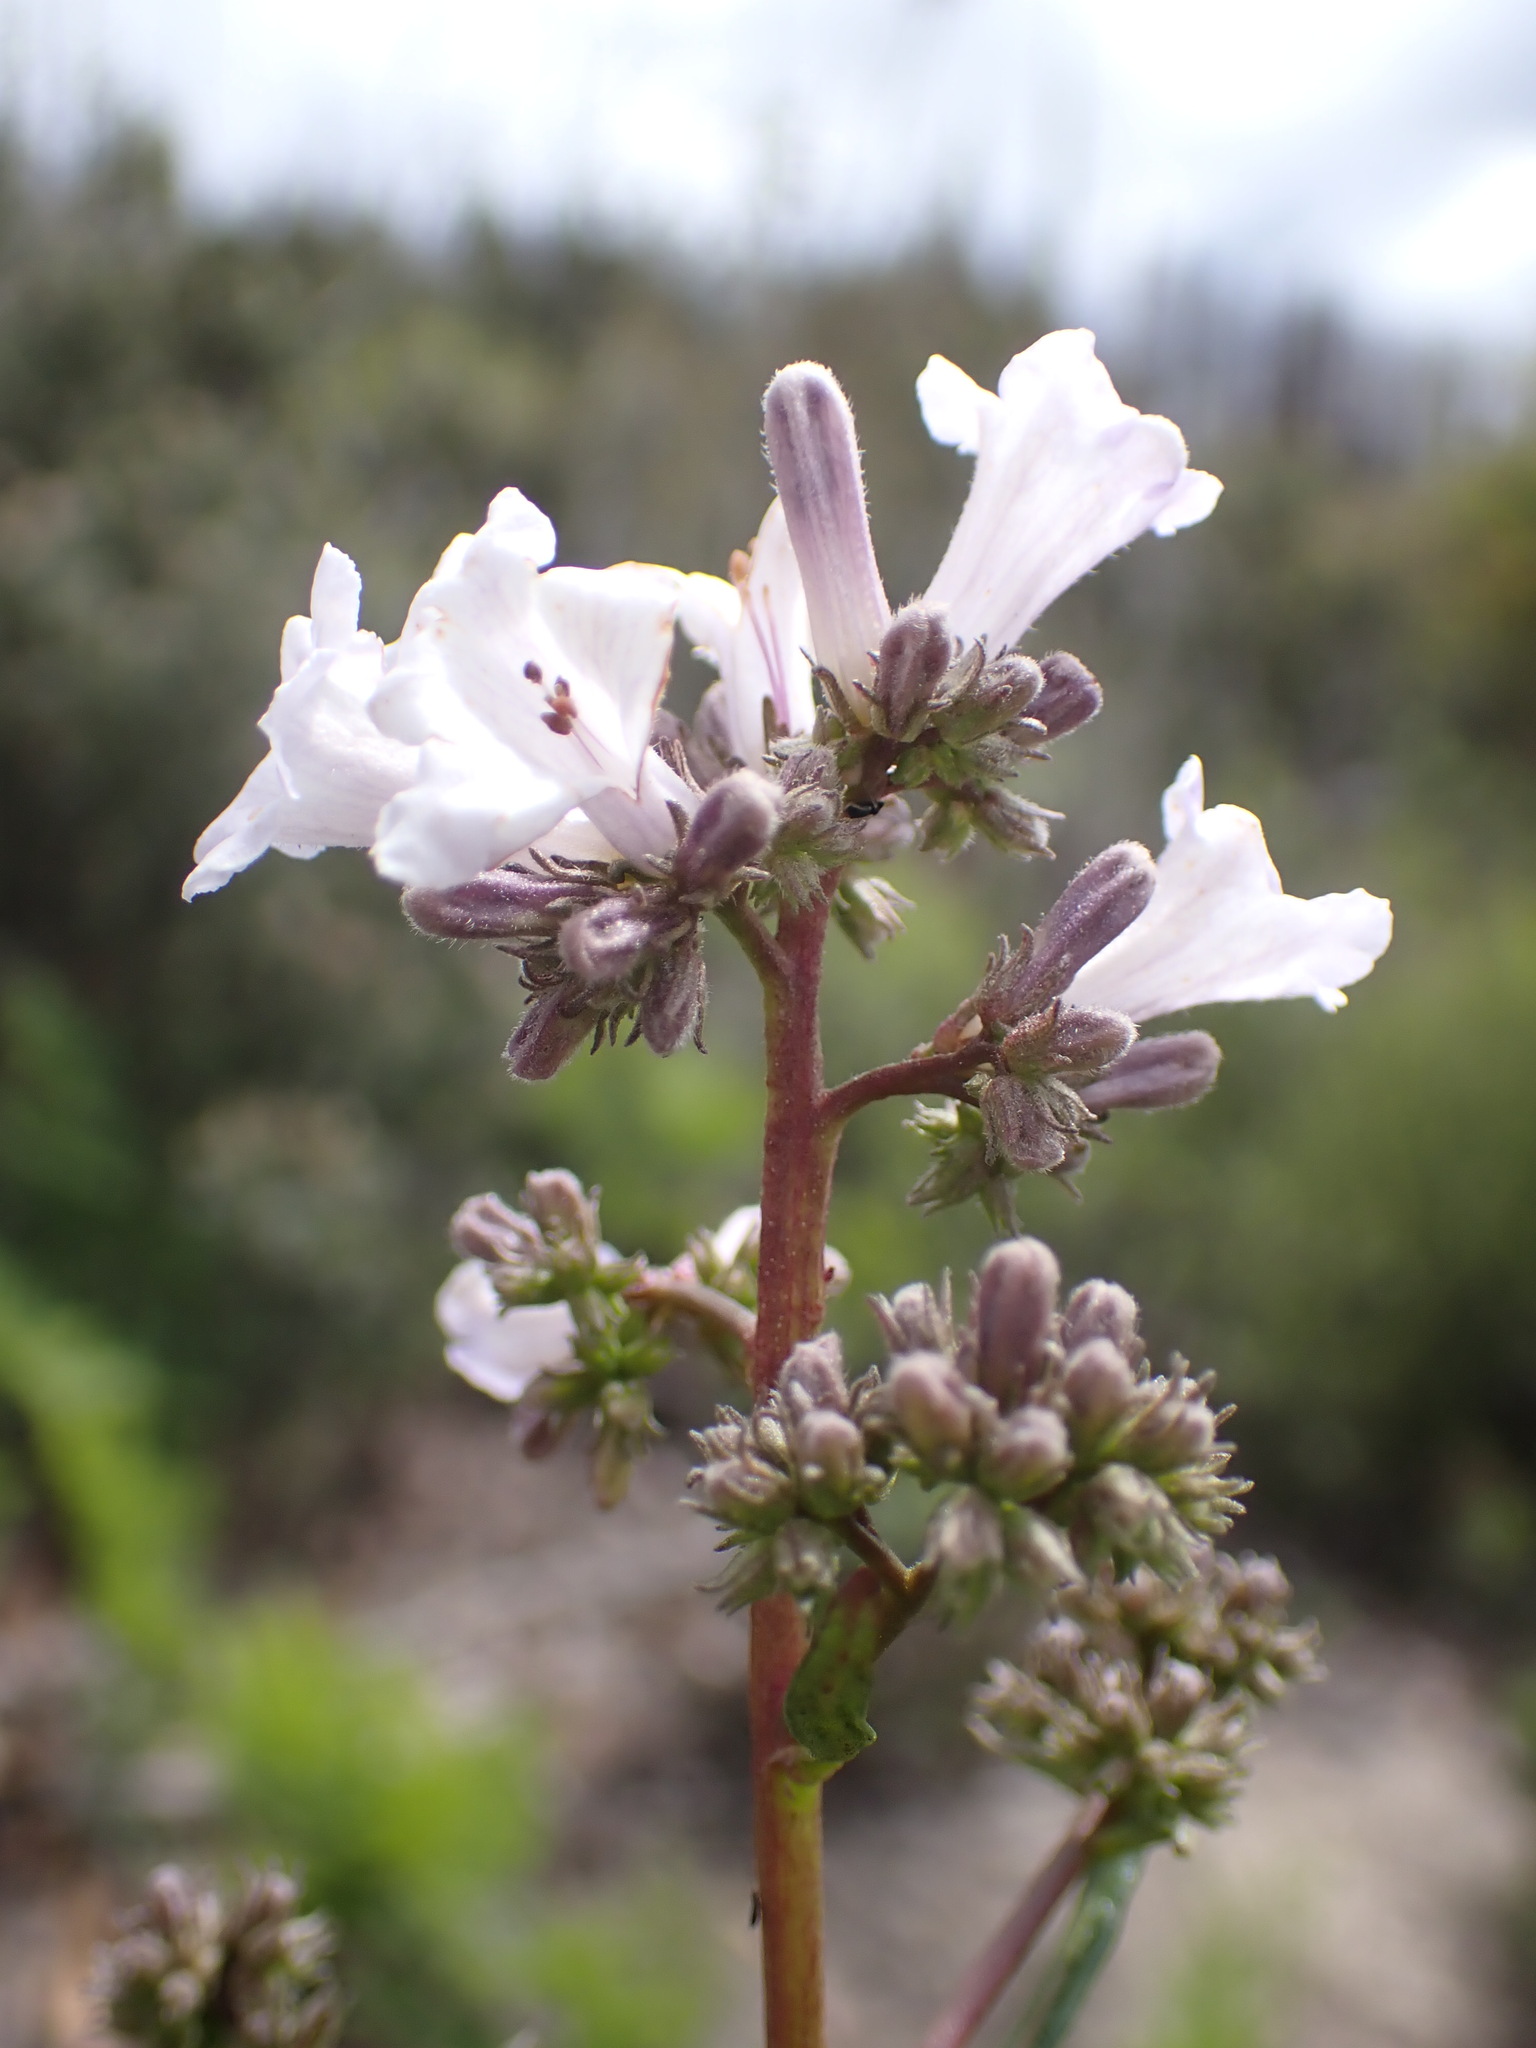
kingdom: Plantae
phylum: Tracheophyta
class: Magnoliopsida
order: Boraginales
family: Namaceae
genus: Eriodictyon
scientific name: Eriodictyon californicum
